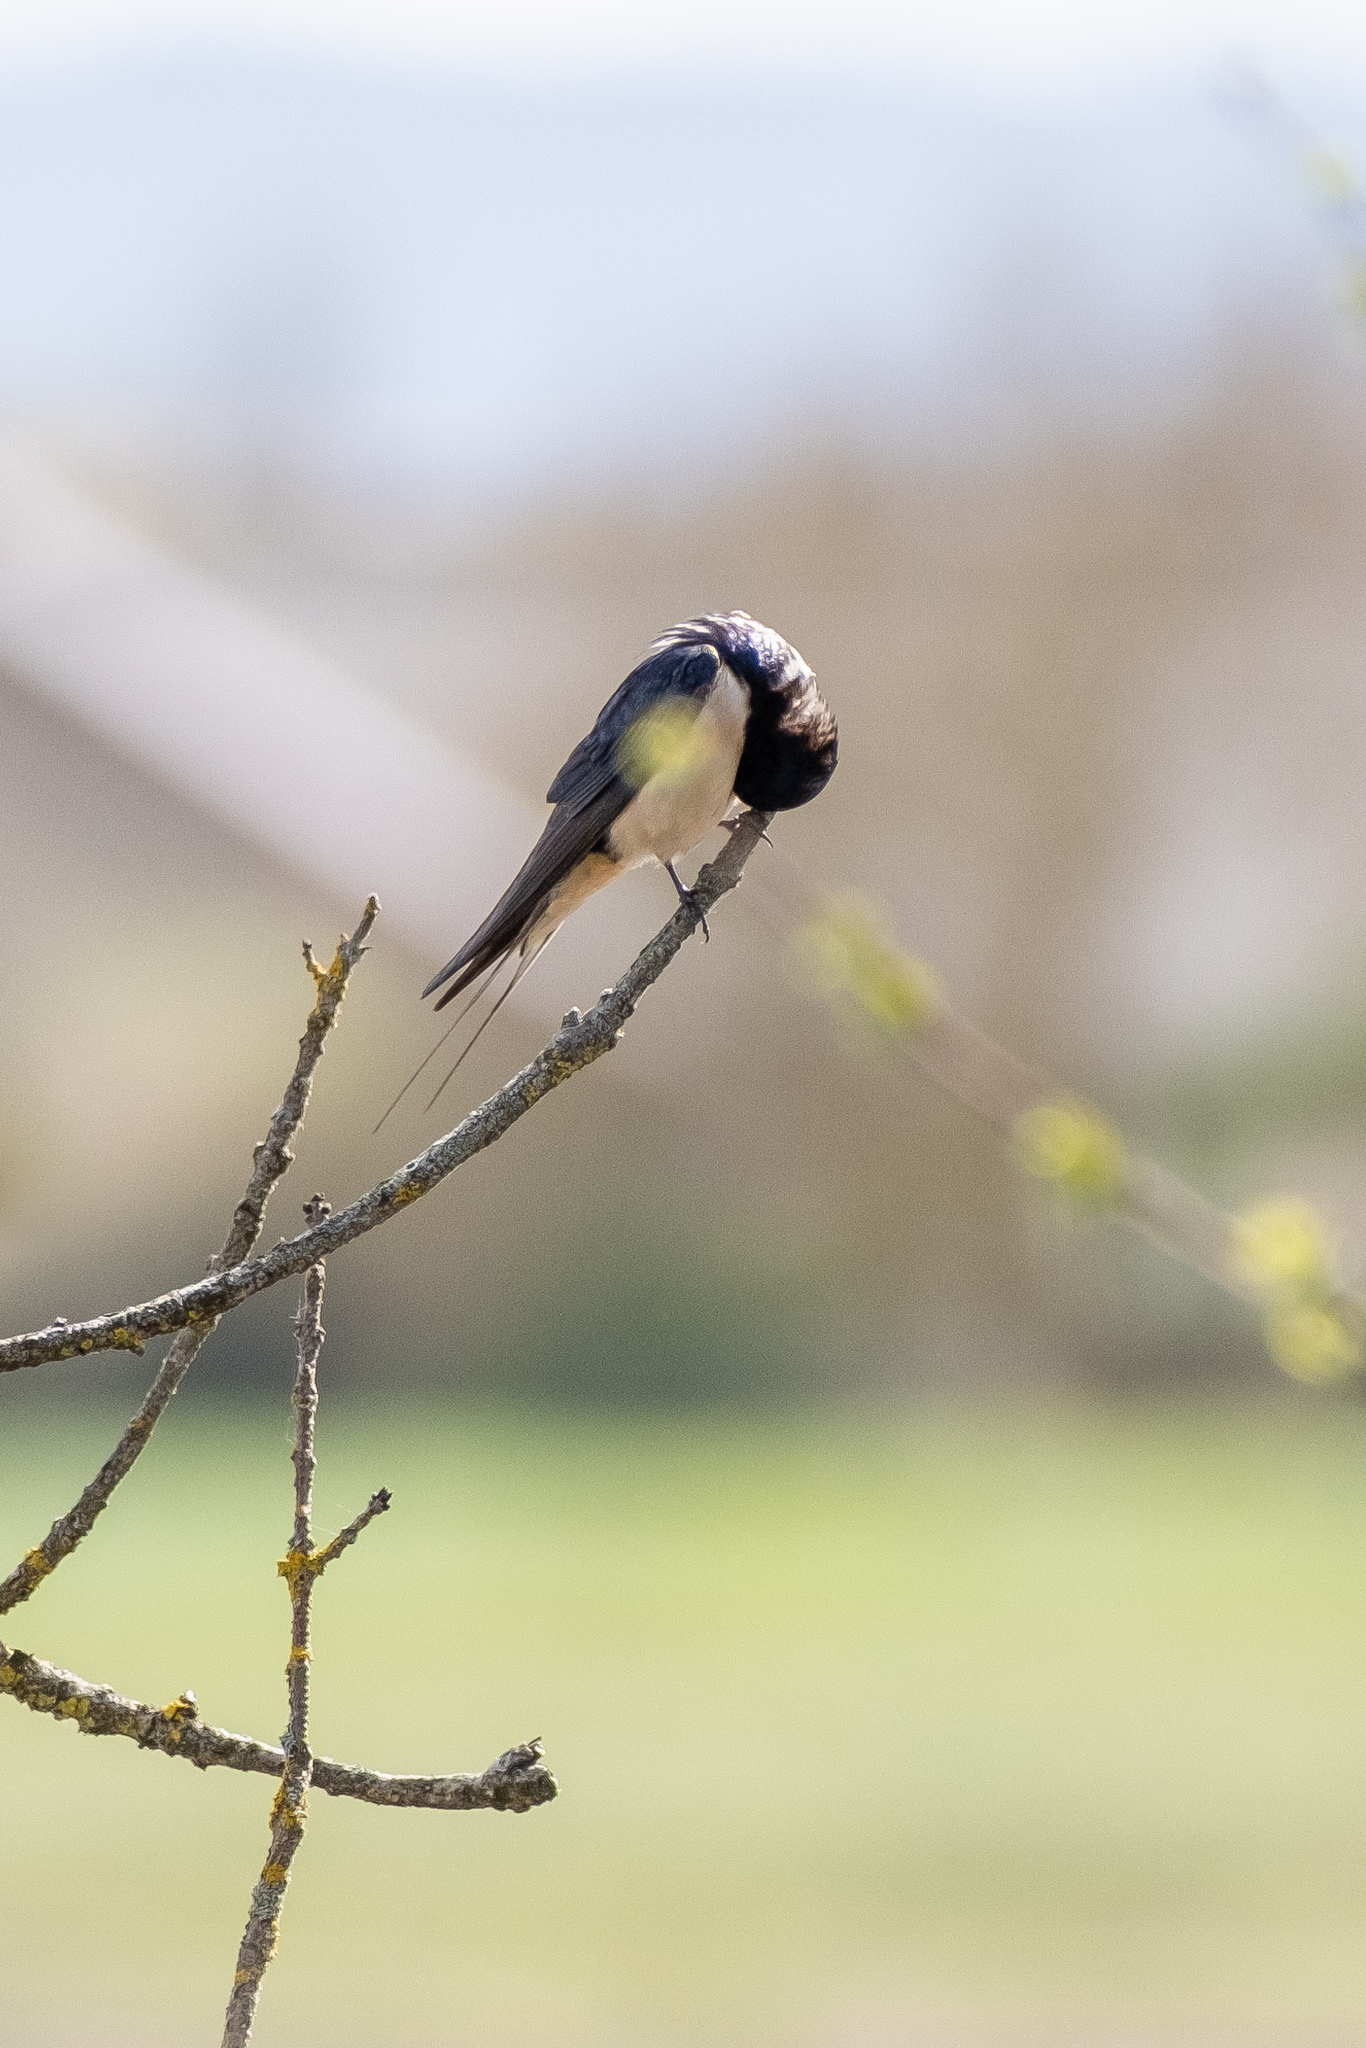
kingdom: Animalia
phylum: Chordata
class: Aves
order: Passeriformes
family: Hirundinidae
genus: Hirundo
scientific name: Hirundo rustica
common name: Barn swallow
